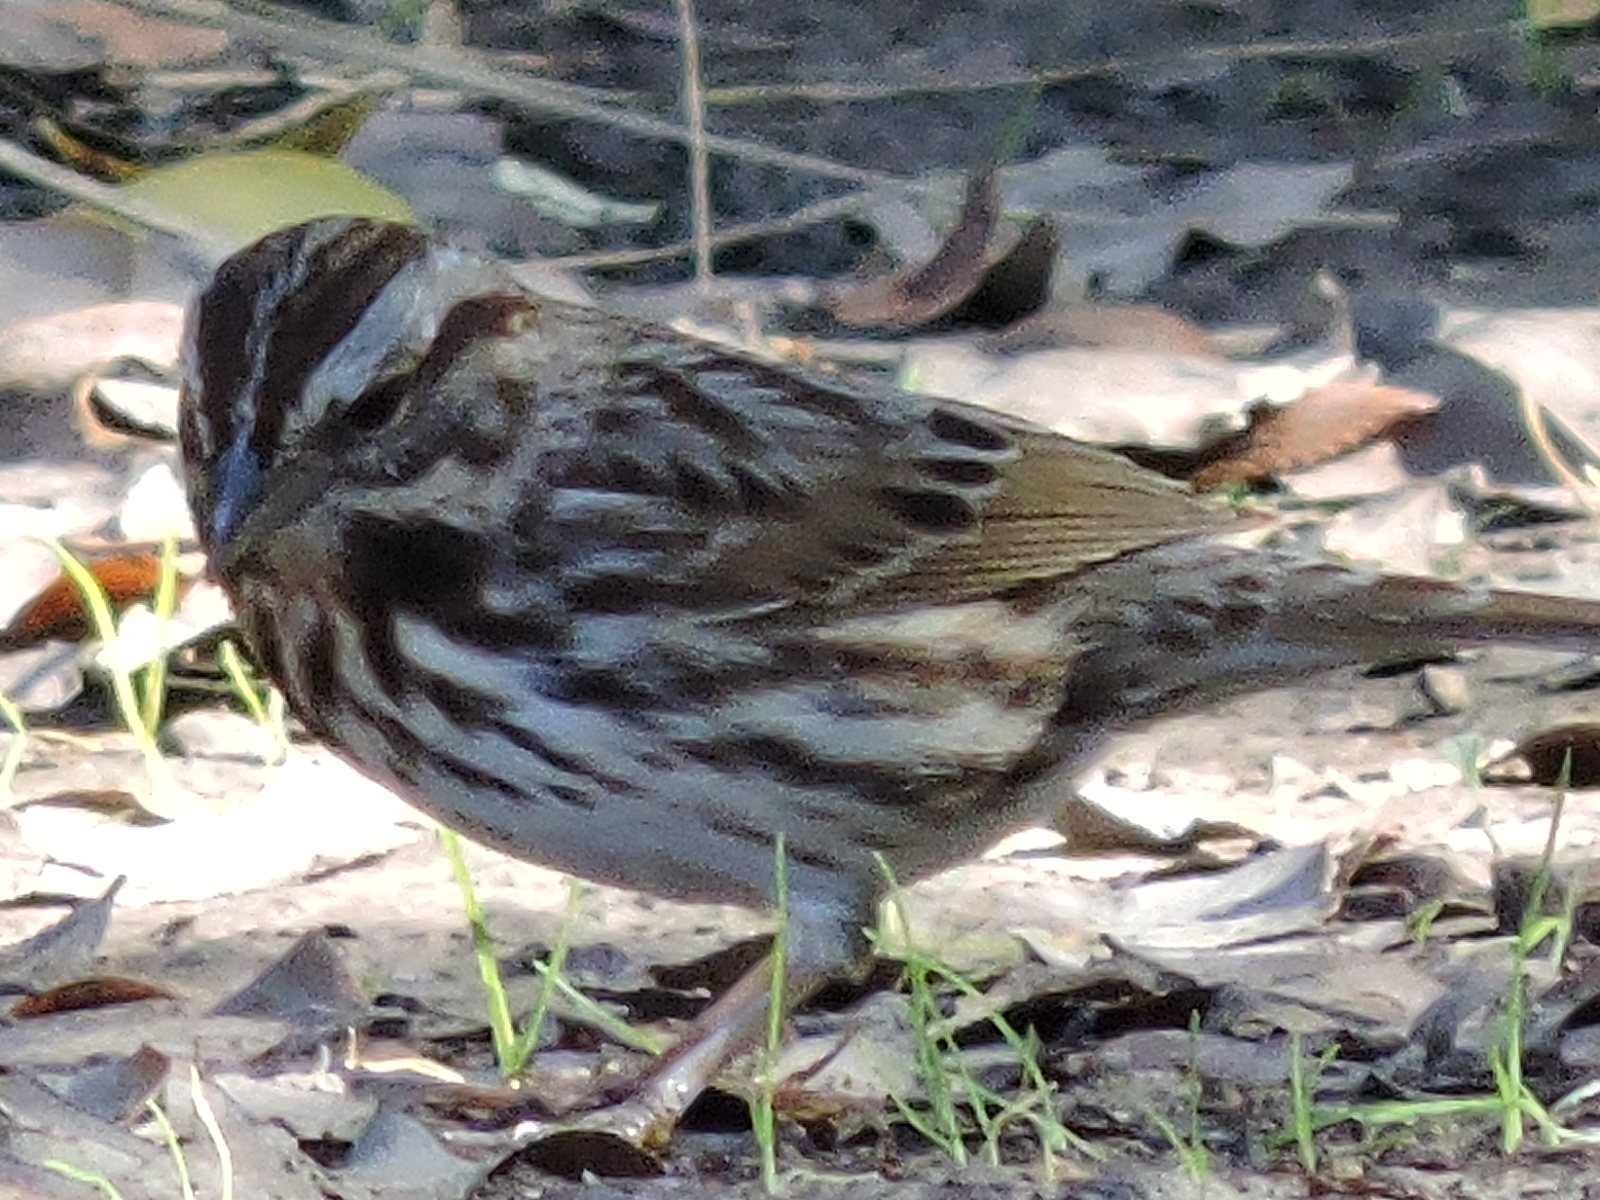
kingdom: Animalia
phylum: Chordata
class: Aves
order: Passeriformes
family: Passerellidae
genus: Melospiza
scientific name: Melospiza melodia
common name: Song sparrow
